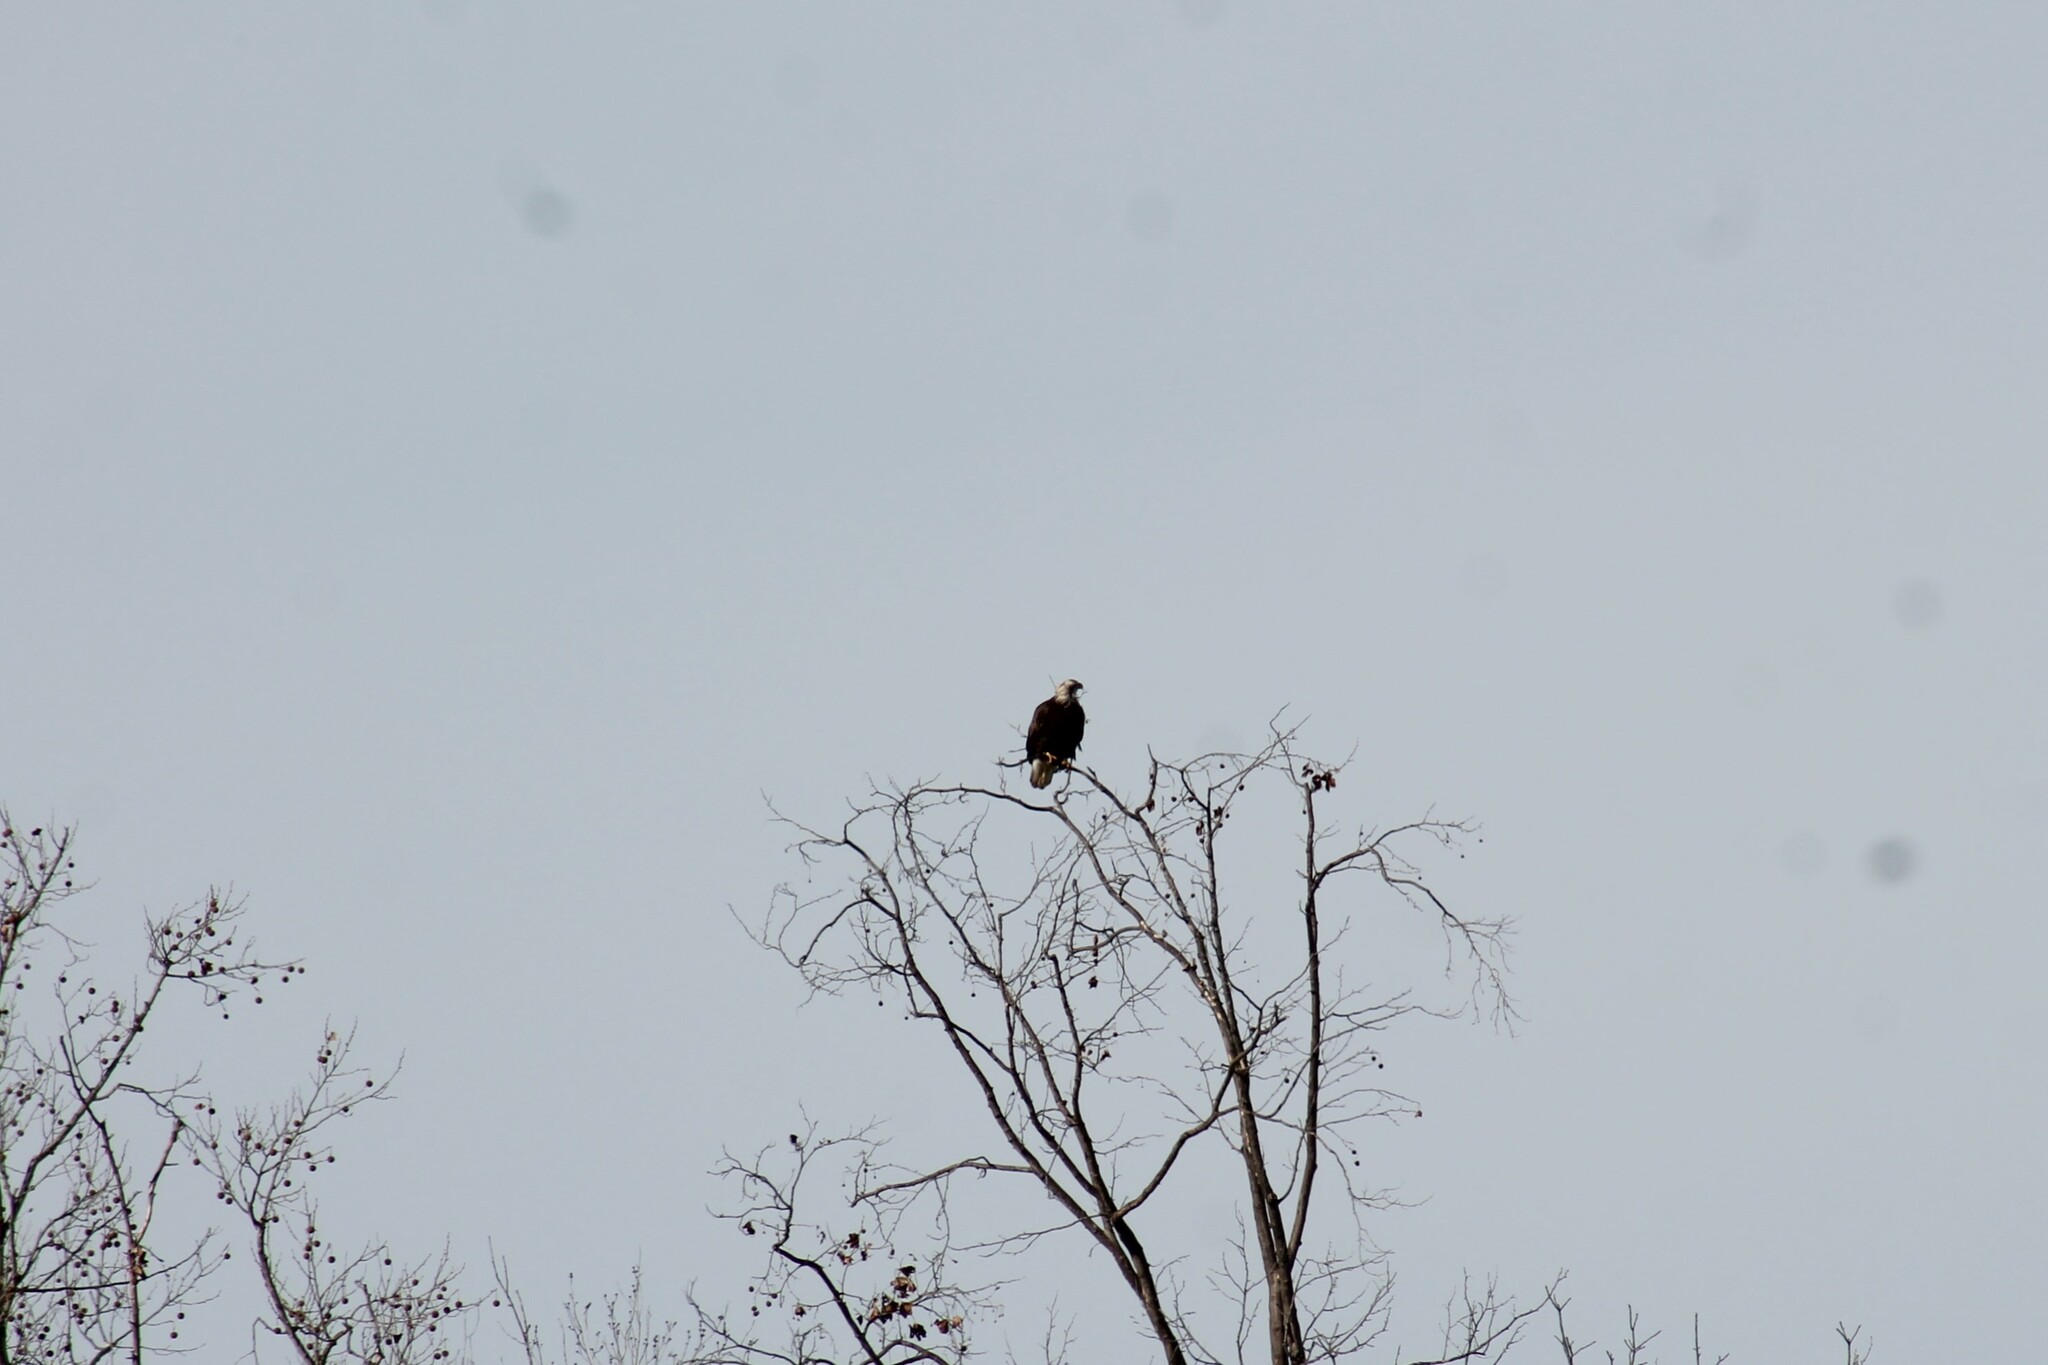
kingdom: Animalia
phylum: Chordata
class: Aves
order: Accipitriformes
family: Accipitridae
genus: Haliaeetus
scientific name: Haliaeetus leucocephalus
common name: Bald eagle
